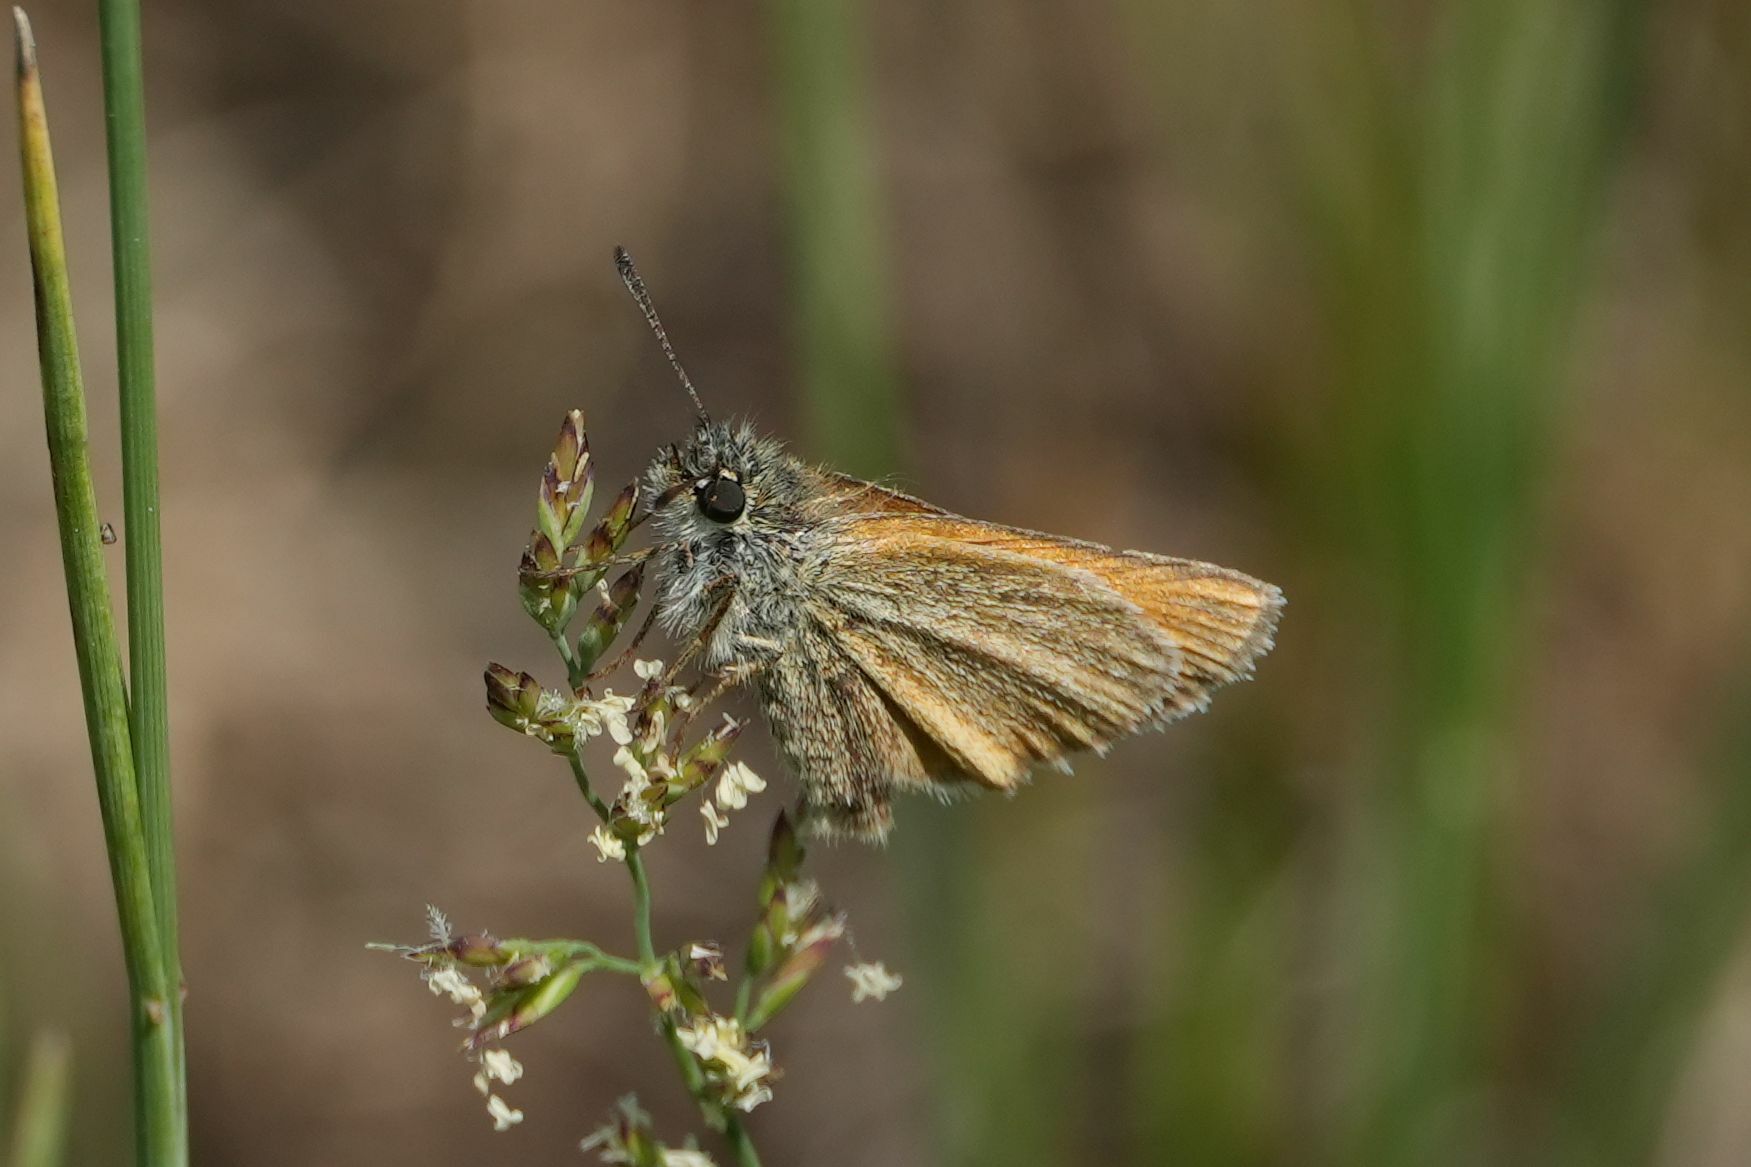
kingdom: Animalia
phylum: Arthropoda
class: Insecta
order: Lepidoptera
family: Hesperiidae
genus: Thymelicus
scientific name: Thymelicus lineola
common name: Essex skipper
